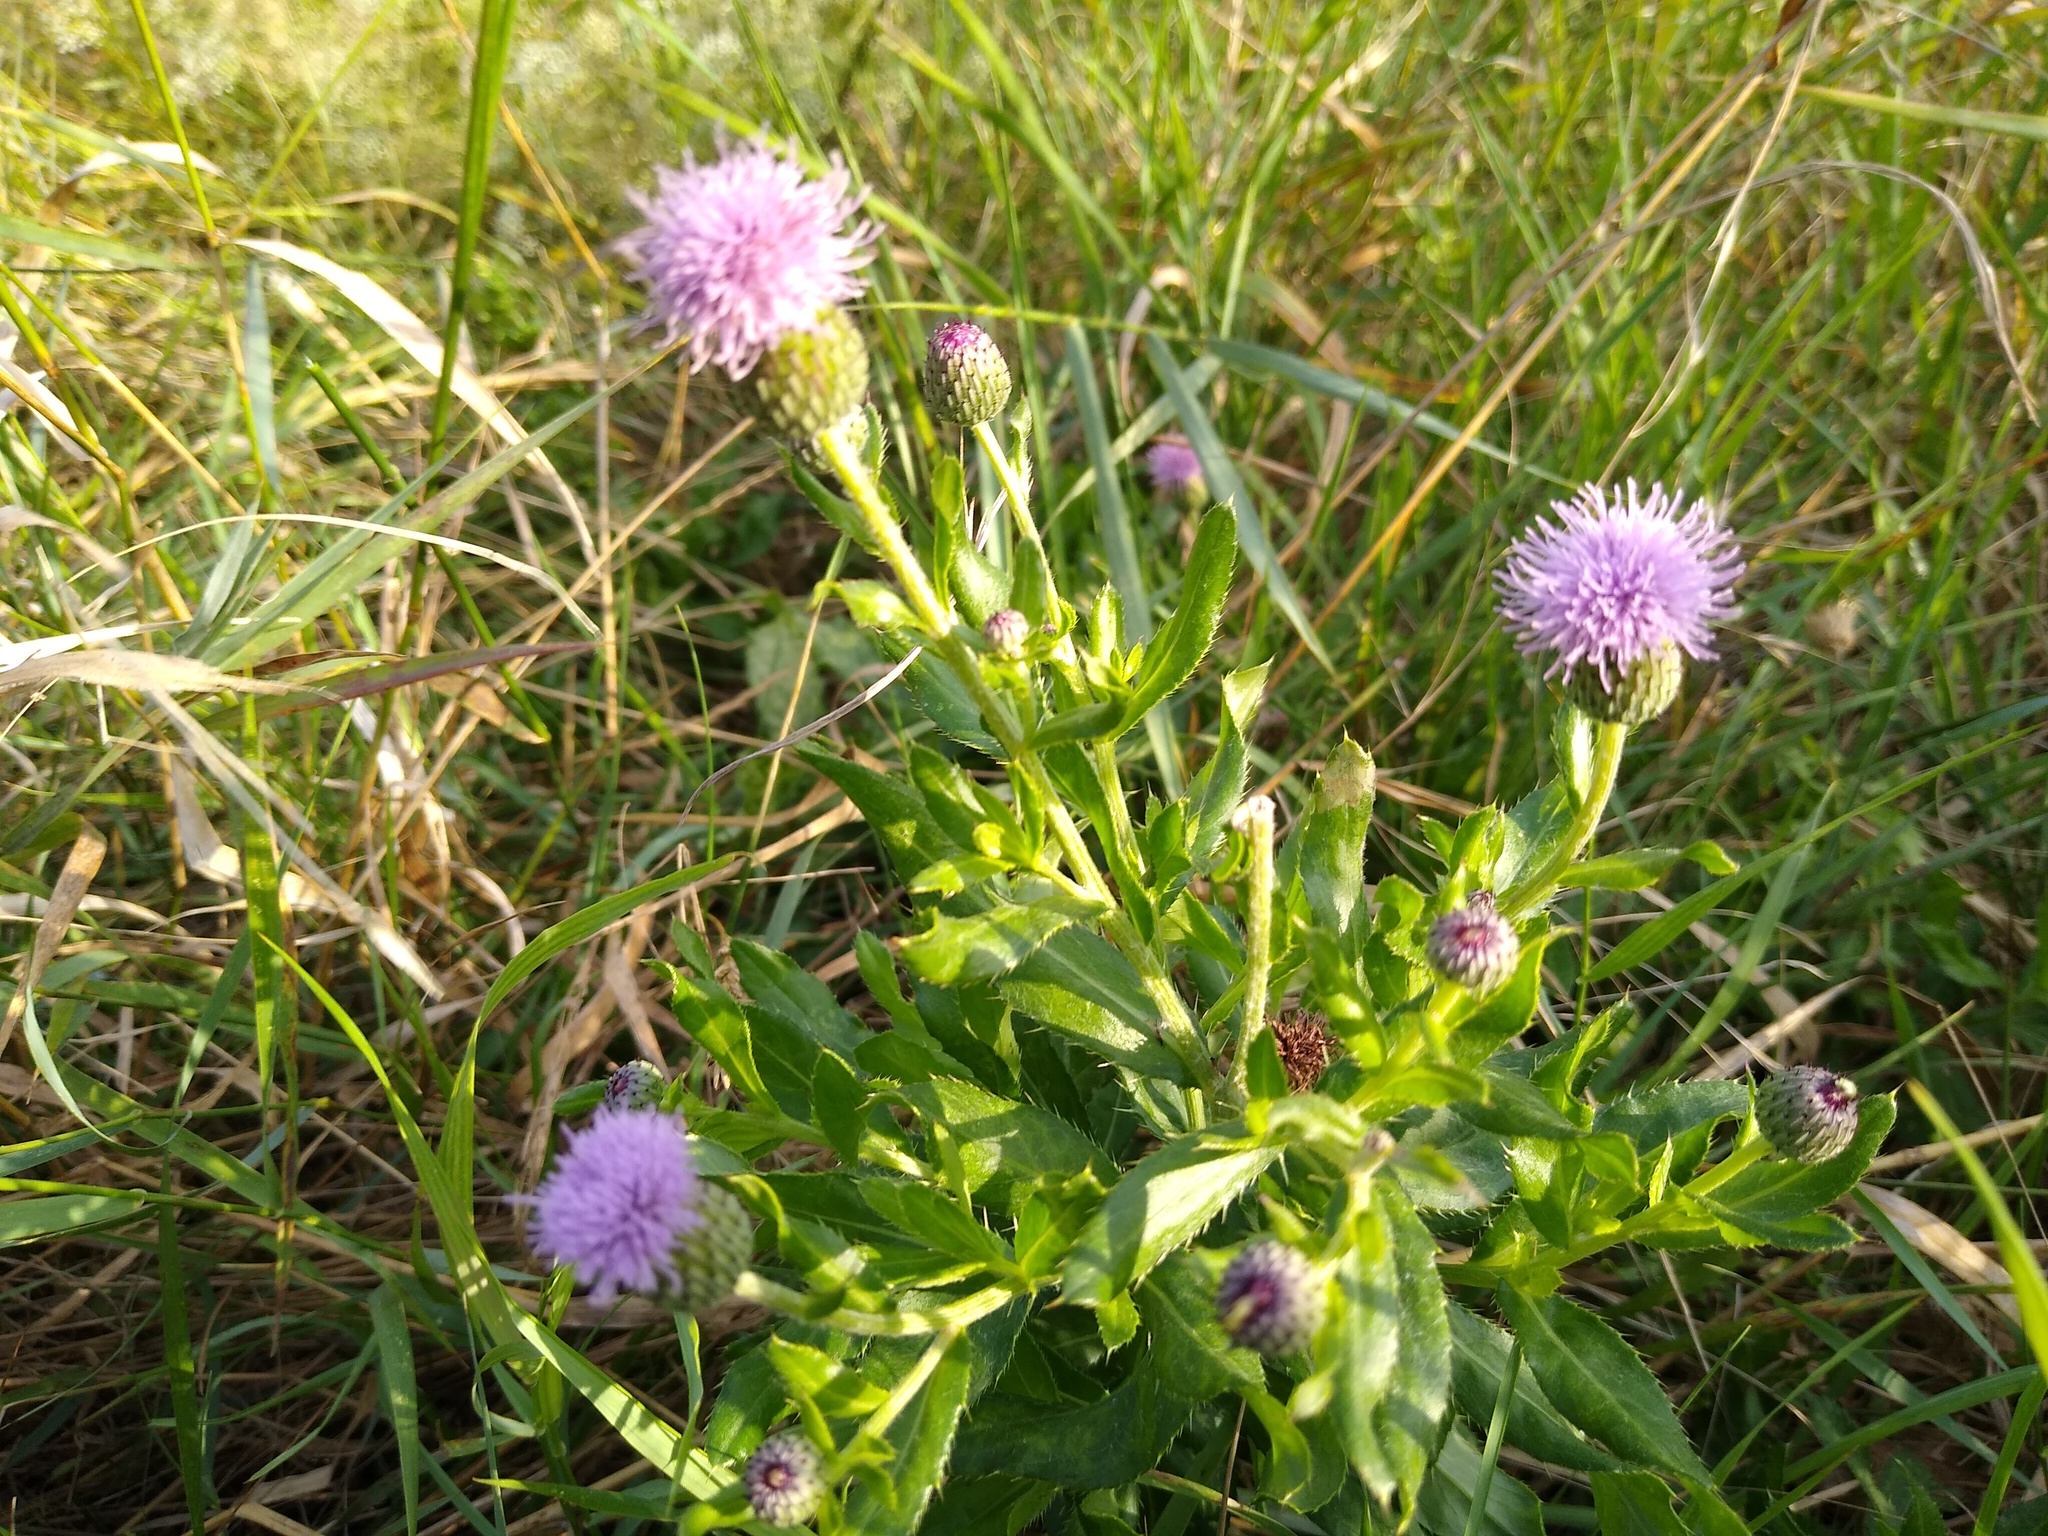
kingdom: Plantae
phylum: Tracheophyta
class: Magnoliopsida
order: Asterales
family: Asteraceae
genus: Cirsium
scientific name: Cirsium arvense
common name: Creeping thistle
